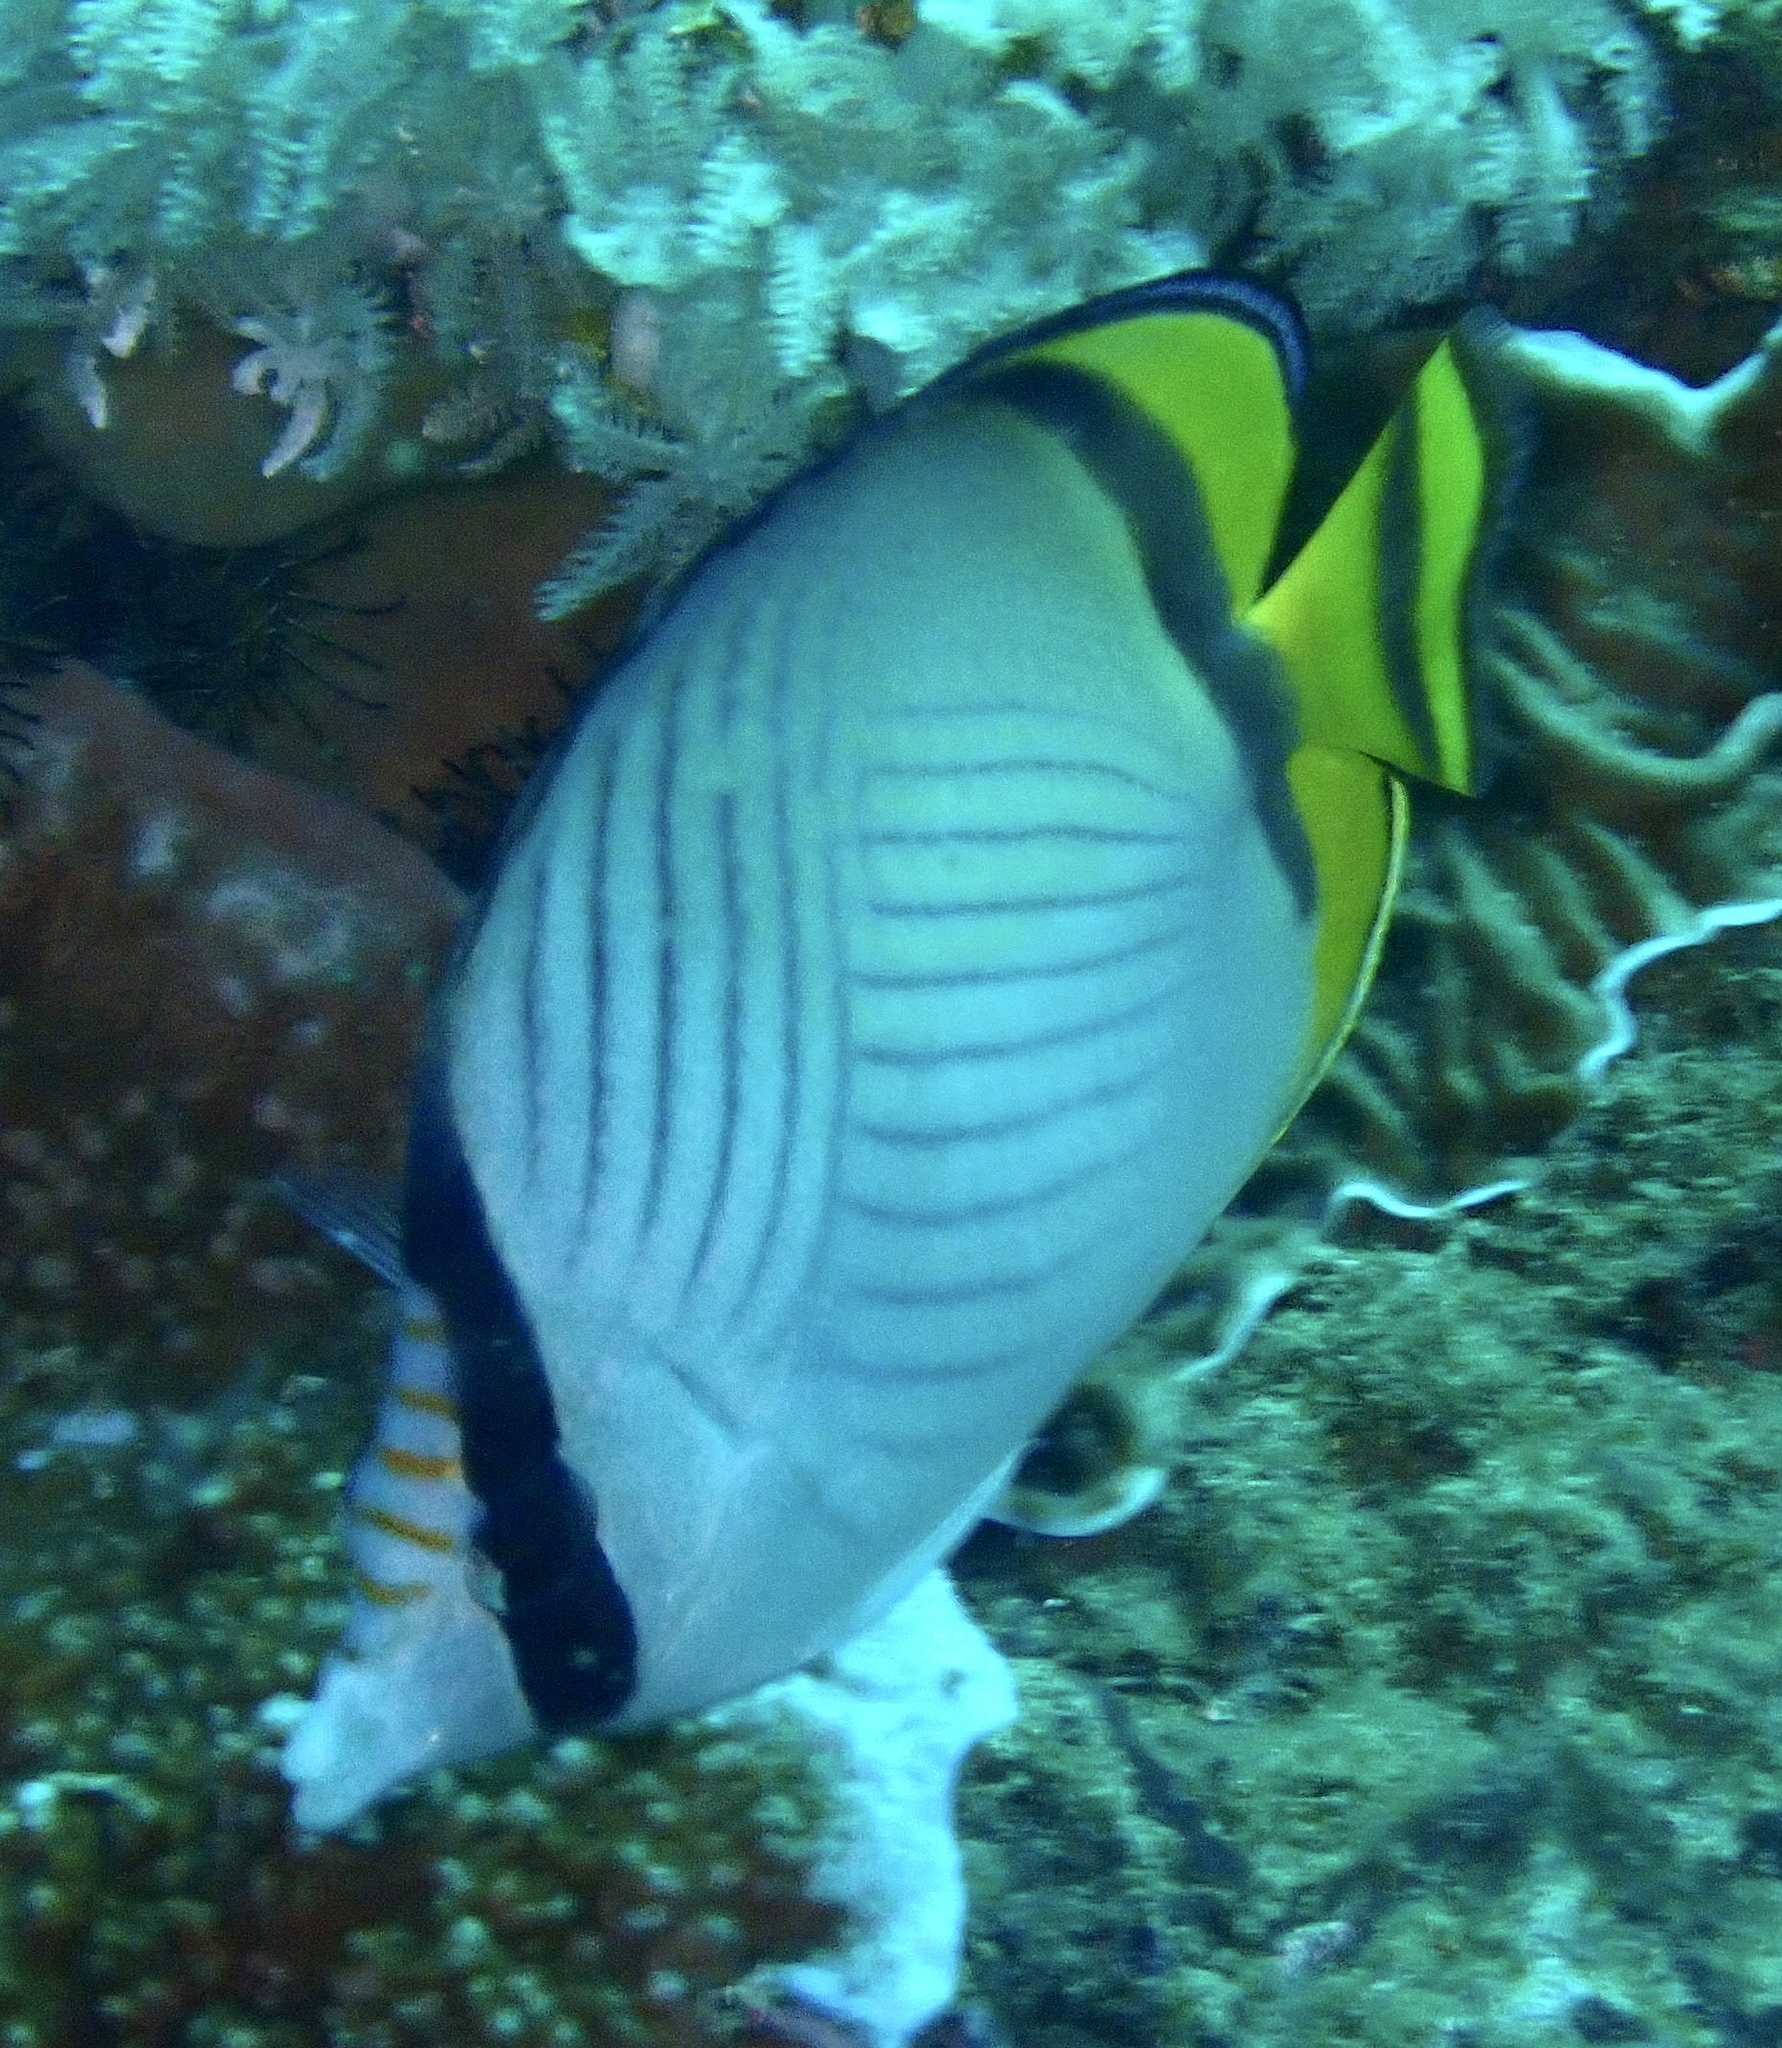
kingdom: Animalia
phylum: Chordata
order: Perciformes
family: Chaetodontidae
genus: Chaetodon
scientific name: Chaetodon vagabundus
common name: Vagabond butterflyfish
